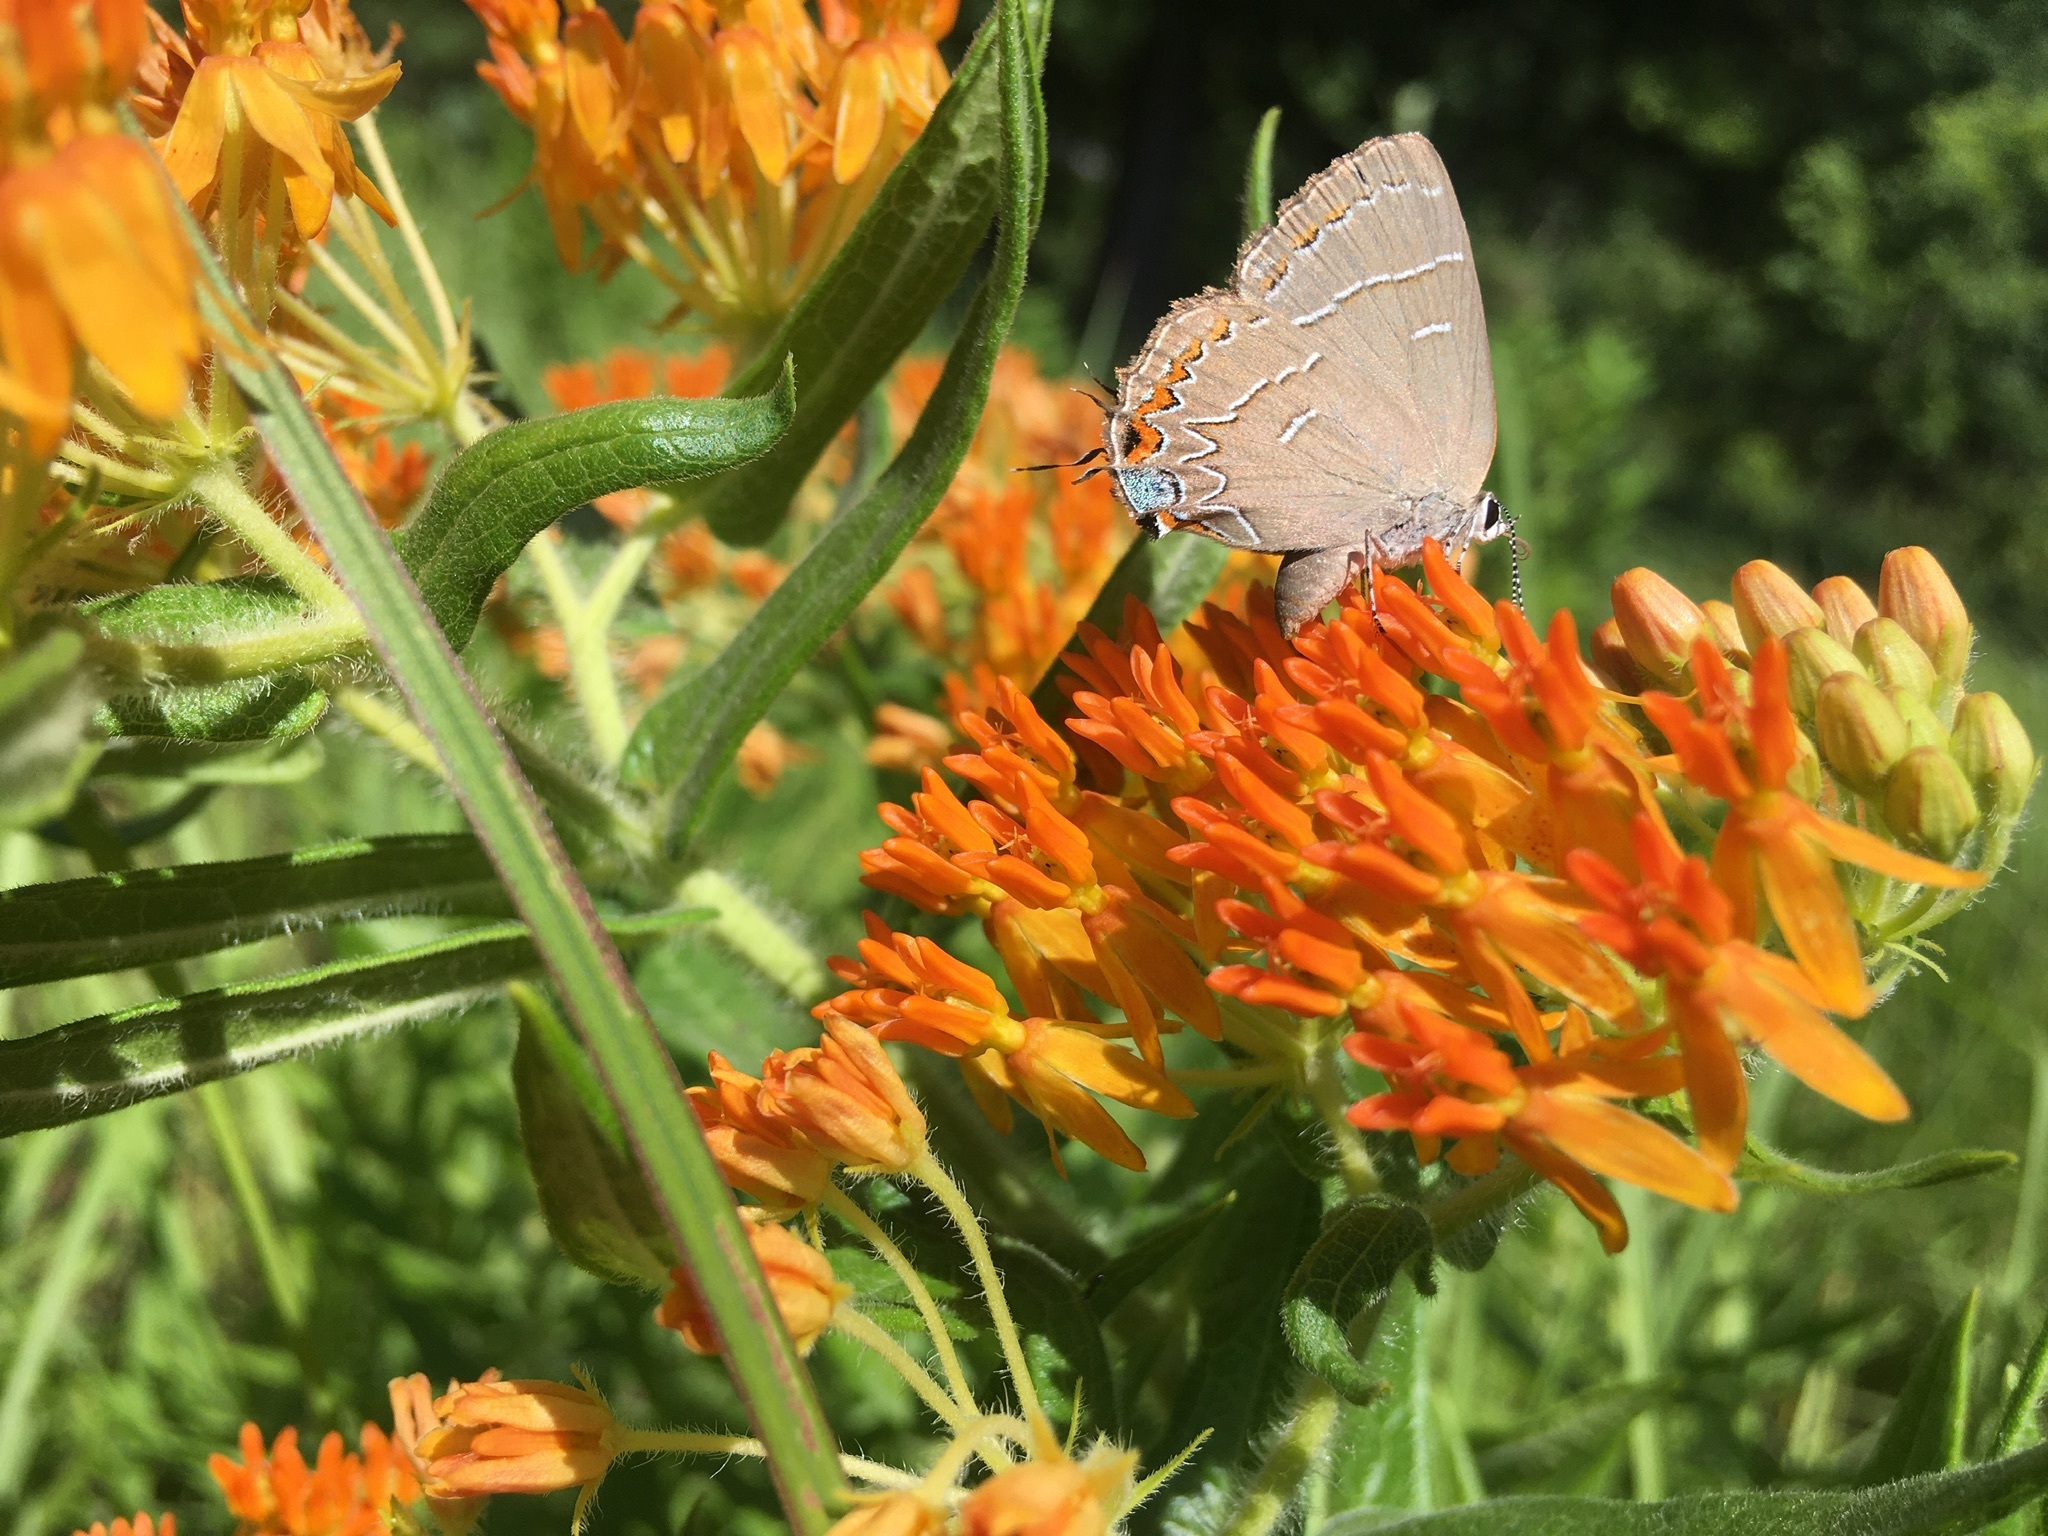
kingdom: Animalia
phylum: Arthropoda
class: Insecta
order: Lepidoptera
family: Lycaenidae
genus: Phaeostrymon
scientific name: Phaeostrymon alcestis
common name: Soapberry hairstreak
